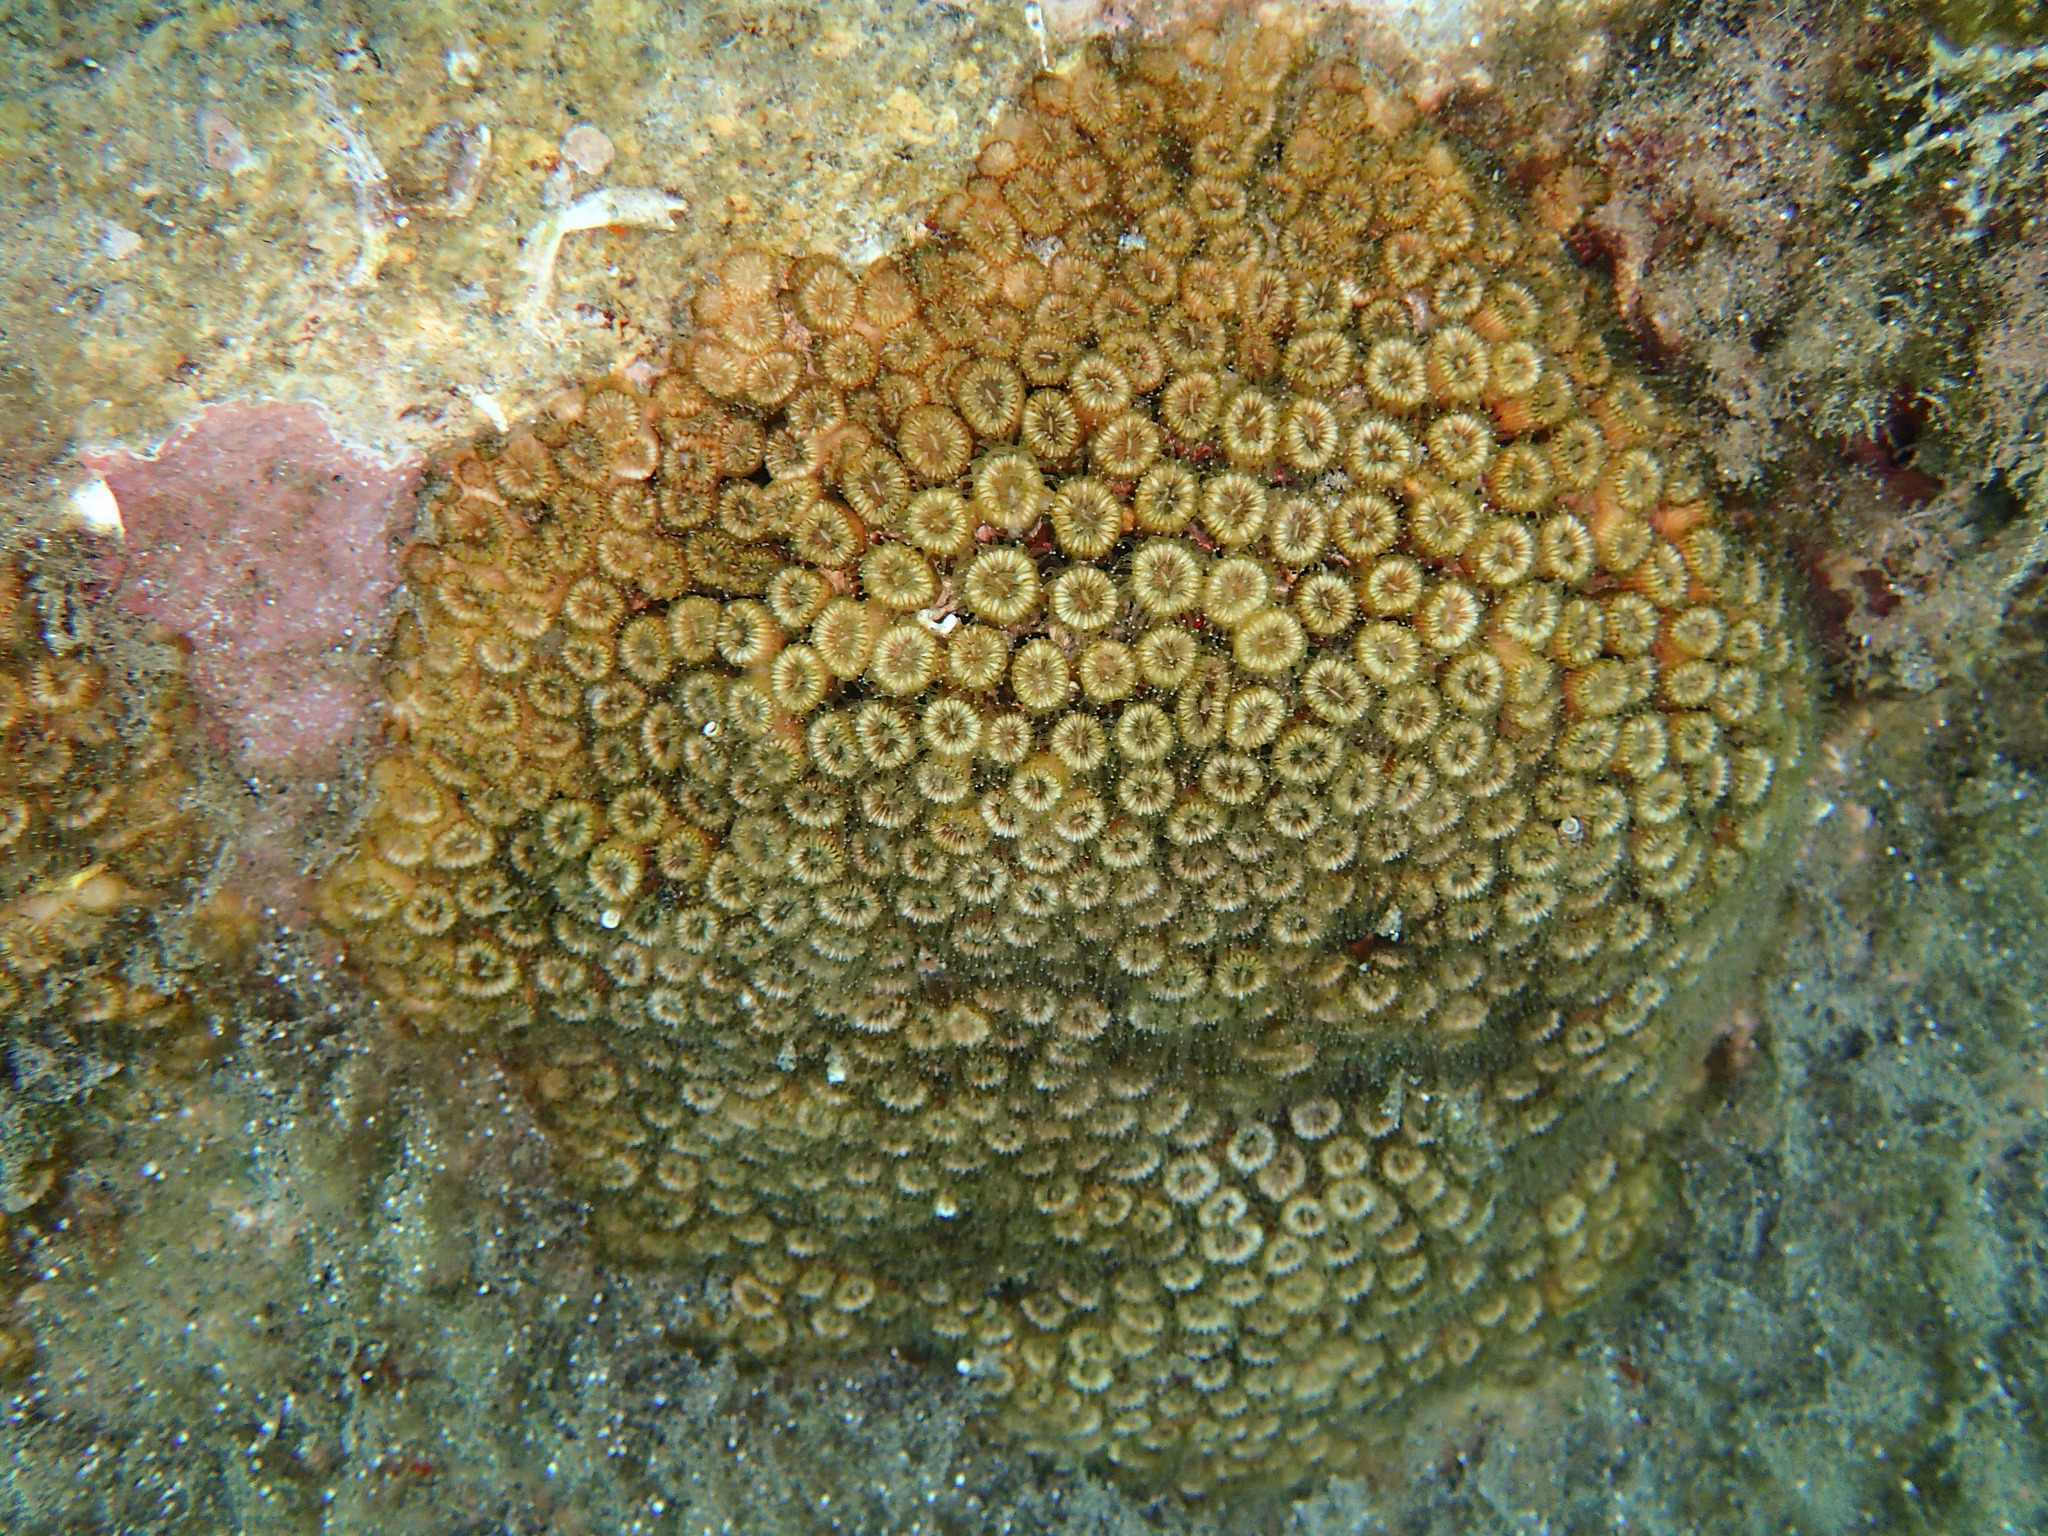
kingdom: Animalia
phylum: Cnidaria
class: Anthozoa
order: Scleractinia
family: Cladocoridae
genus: Cladocora
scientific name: Cladocora caespitosa
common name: Cladocora
